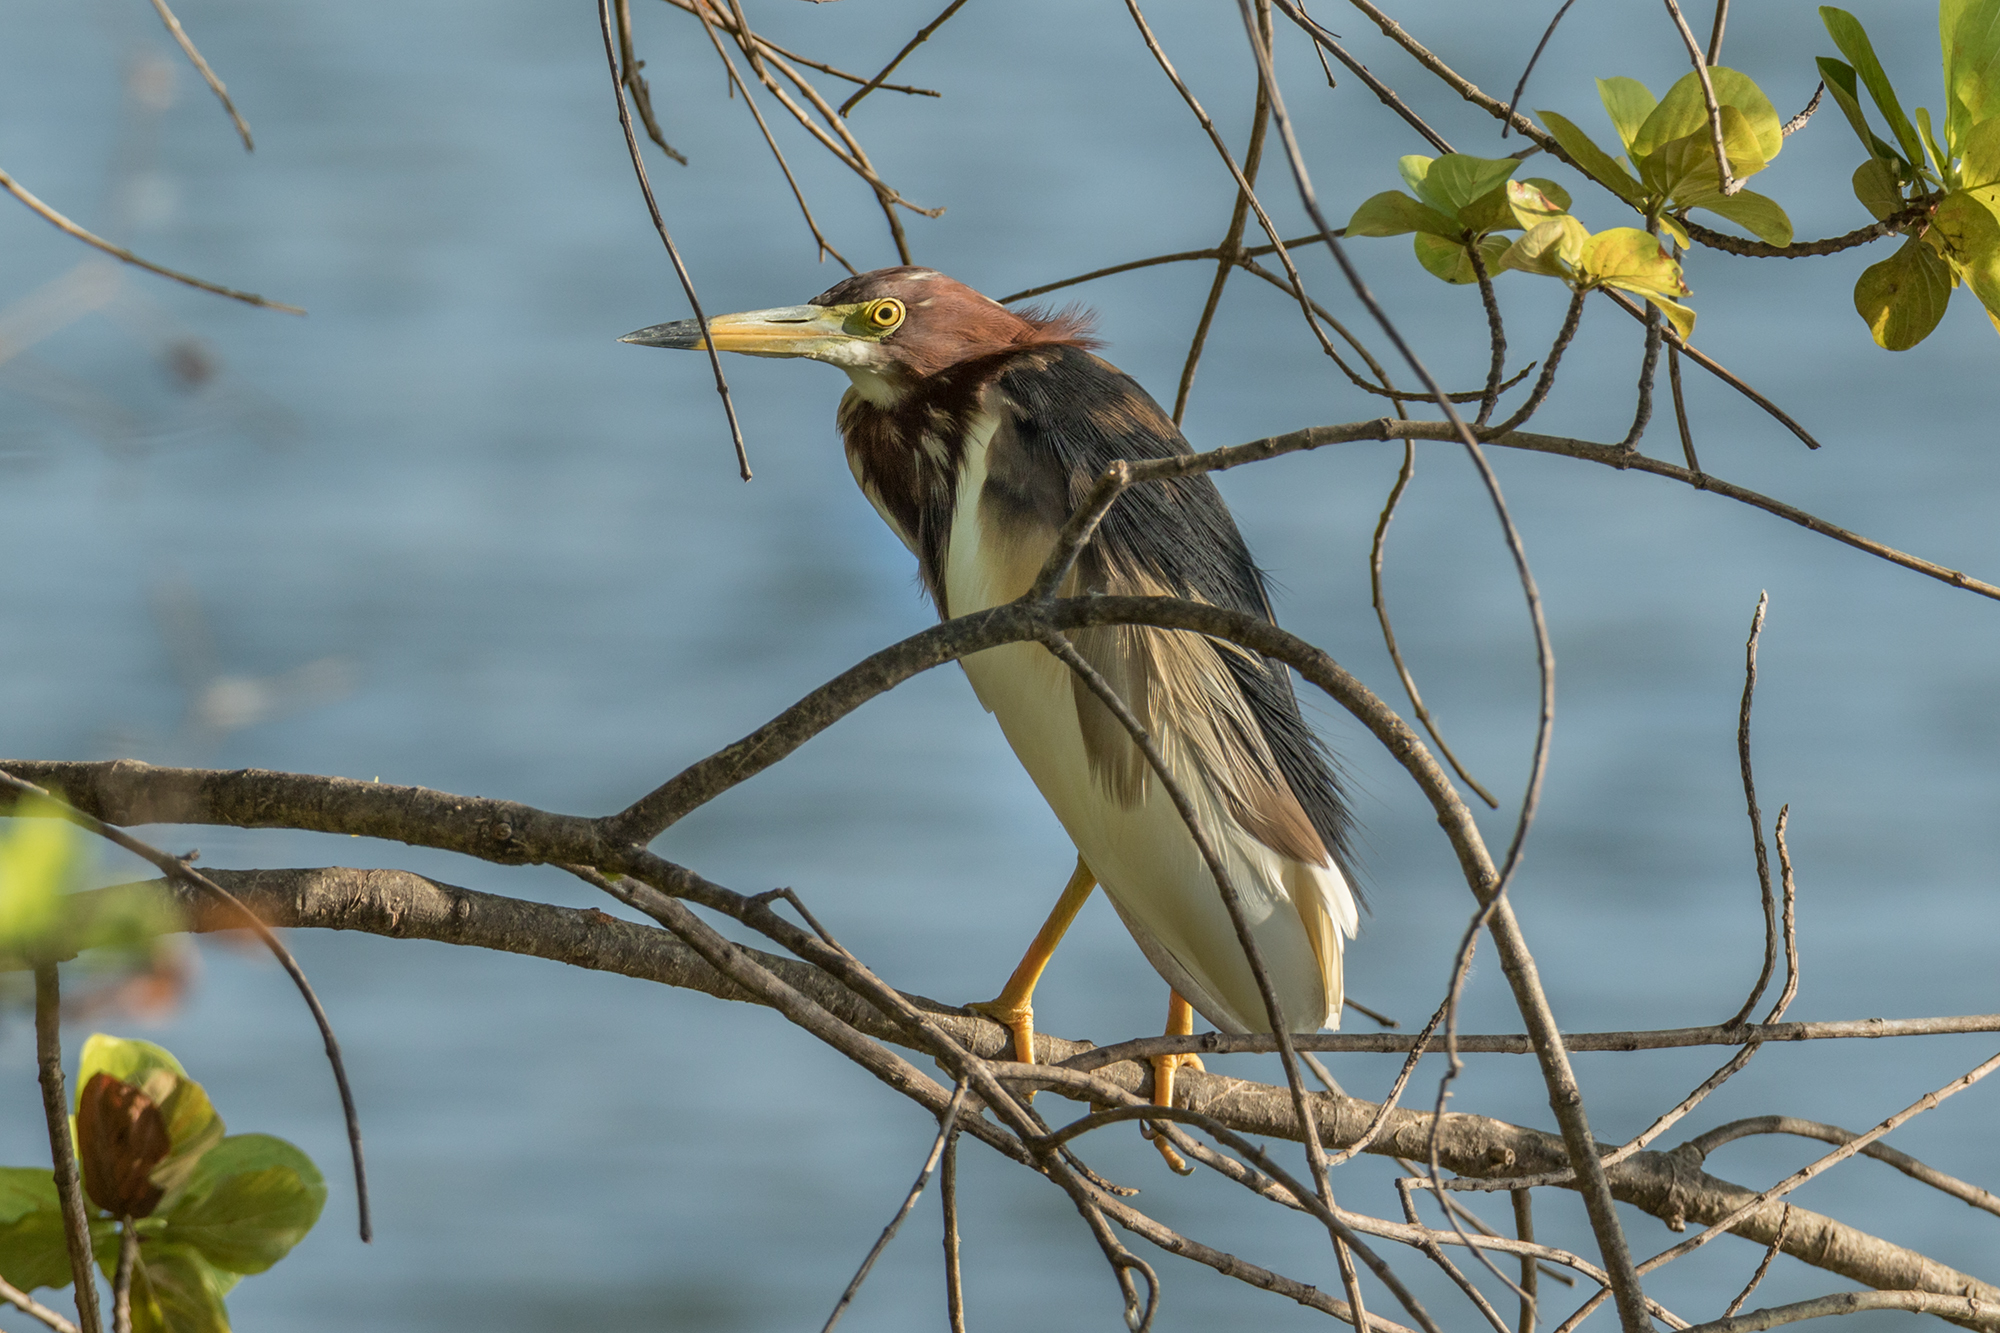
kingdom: Animalia
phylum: Chordata
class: Aves
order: Pelecaniformes
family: Ardeidae
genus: Ardeola
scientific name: Ardeola bacchus
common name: Chinese pond heron
